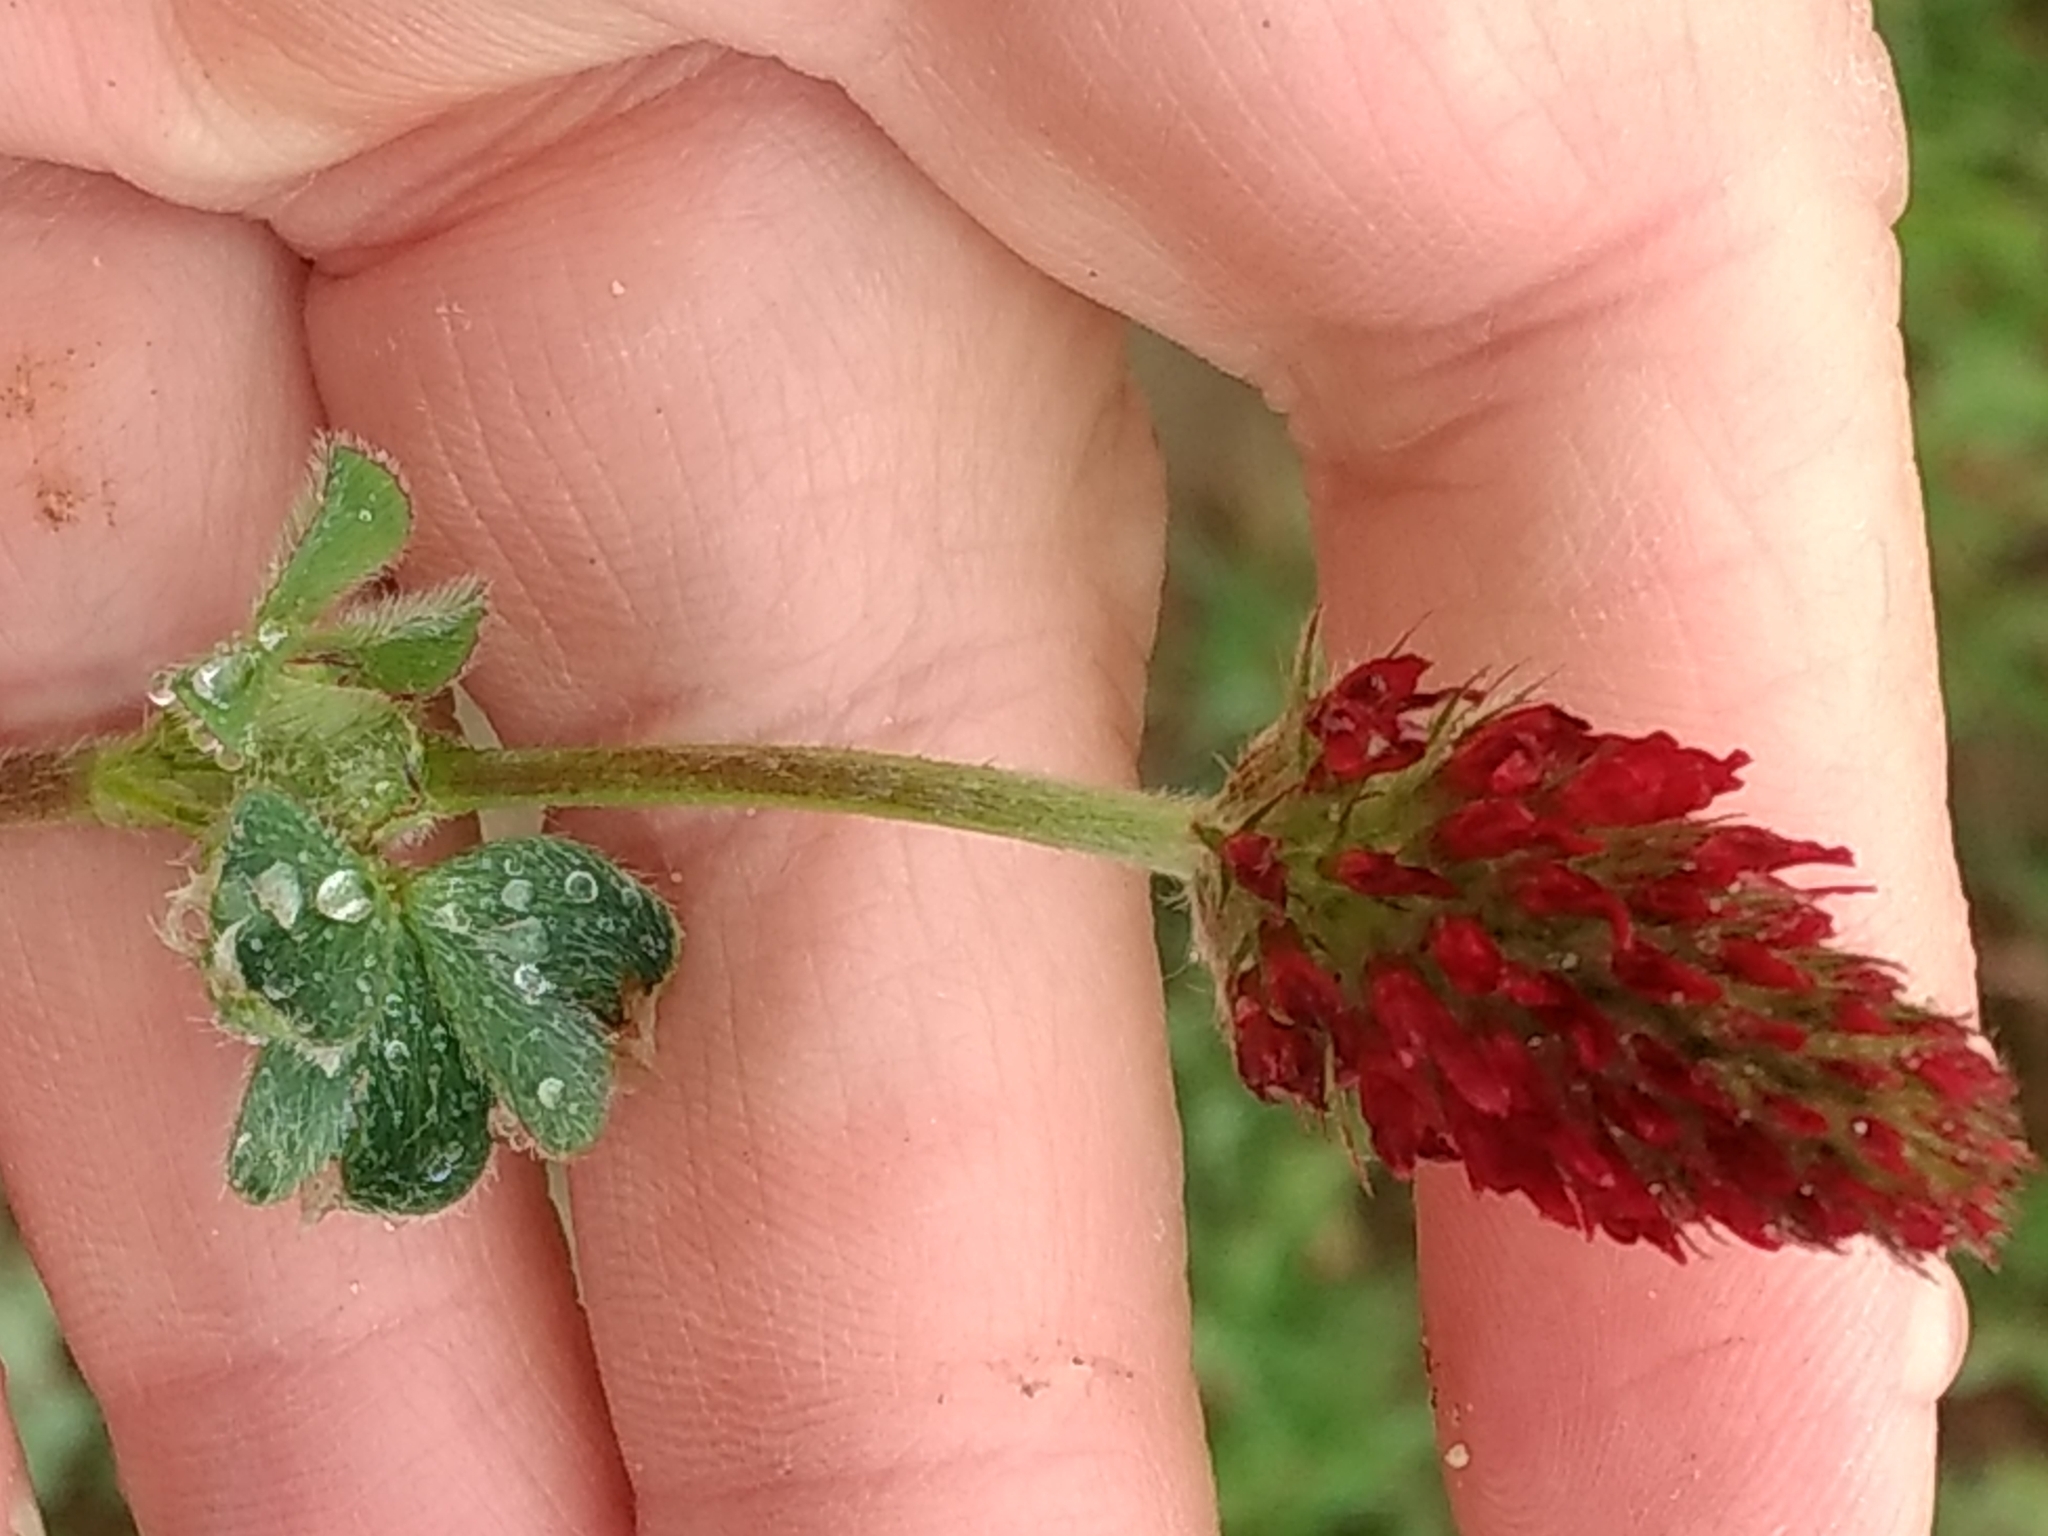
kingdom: Plantae
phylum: Tracheophyta
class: Magnoliopsida
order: Fabales
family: Fabaceae
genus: Trifolium
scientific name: Trifolium incarnatum
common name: Crimson clover
